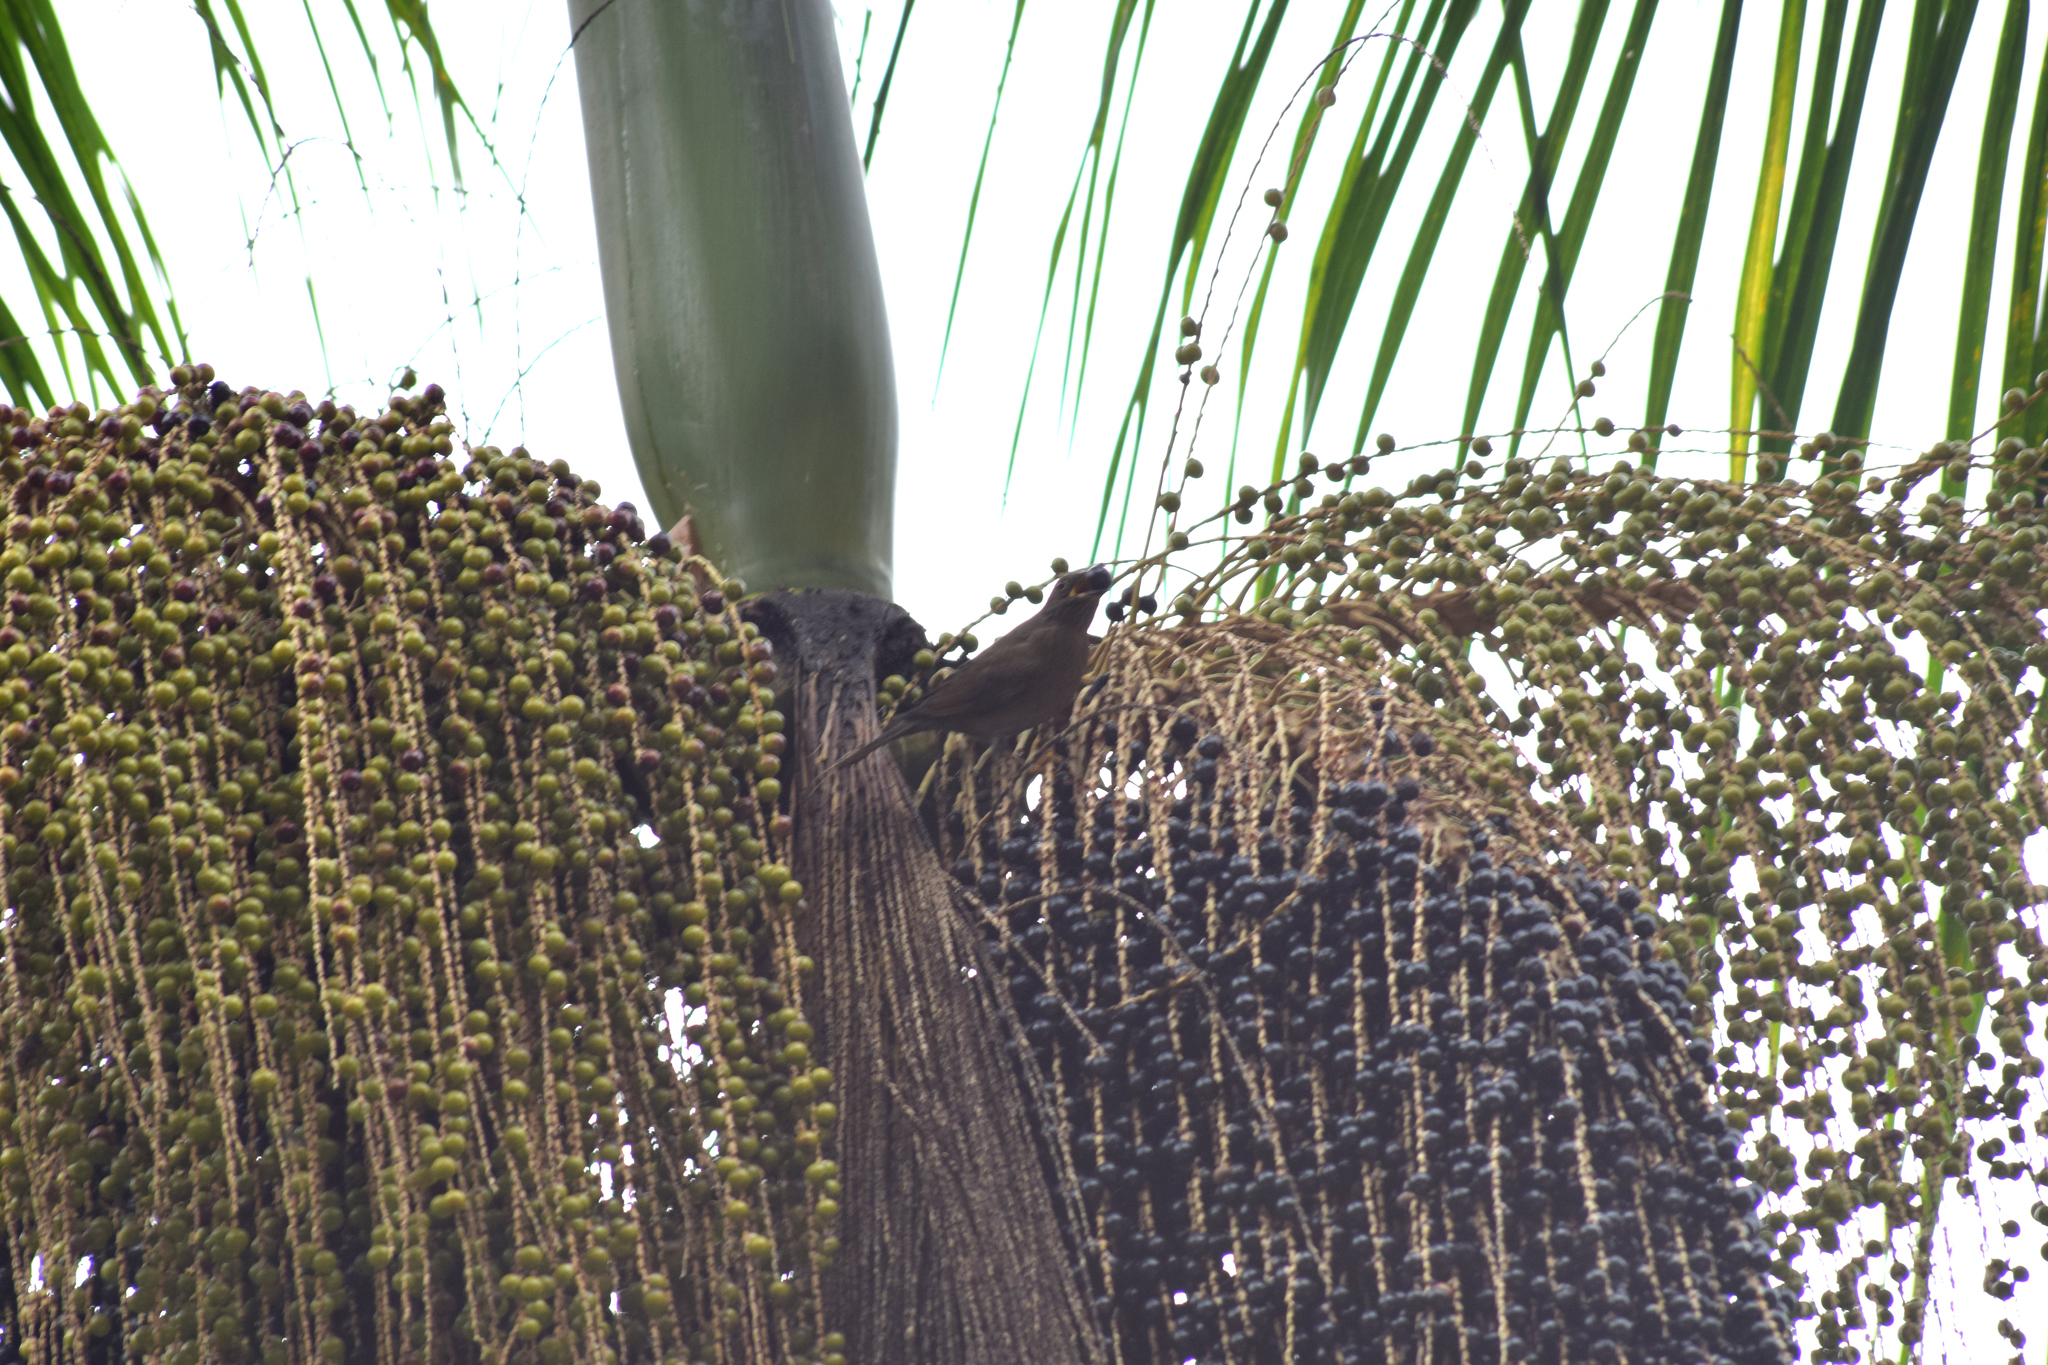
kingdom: Animalia
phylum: Chordata
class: Aves
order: Passeriformes
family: Turdidae
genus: Turdus
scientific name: Turdus flavipes
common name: Yellow-legged thrush
